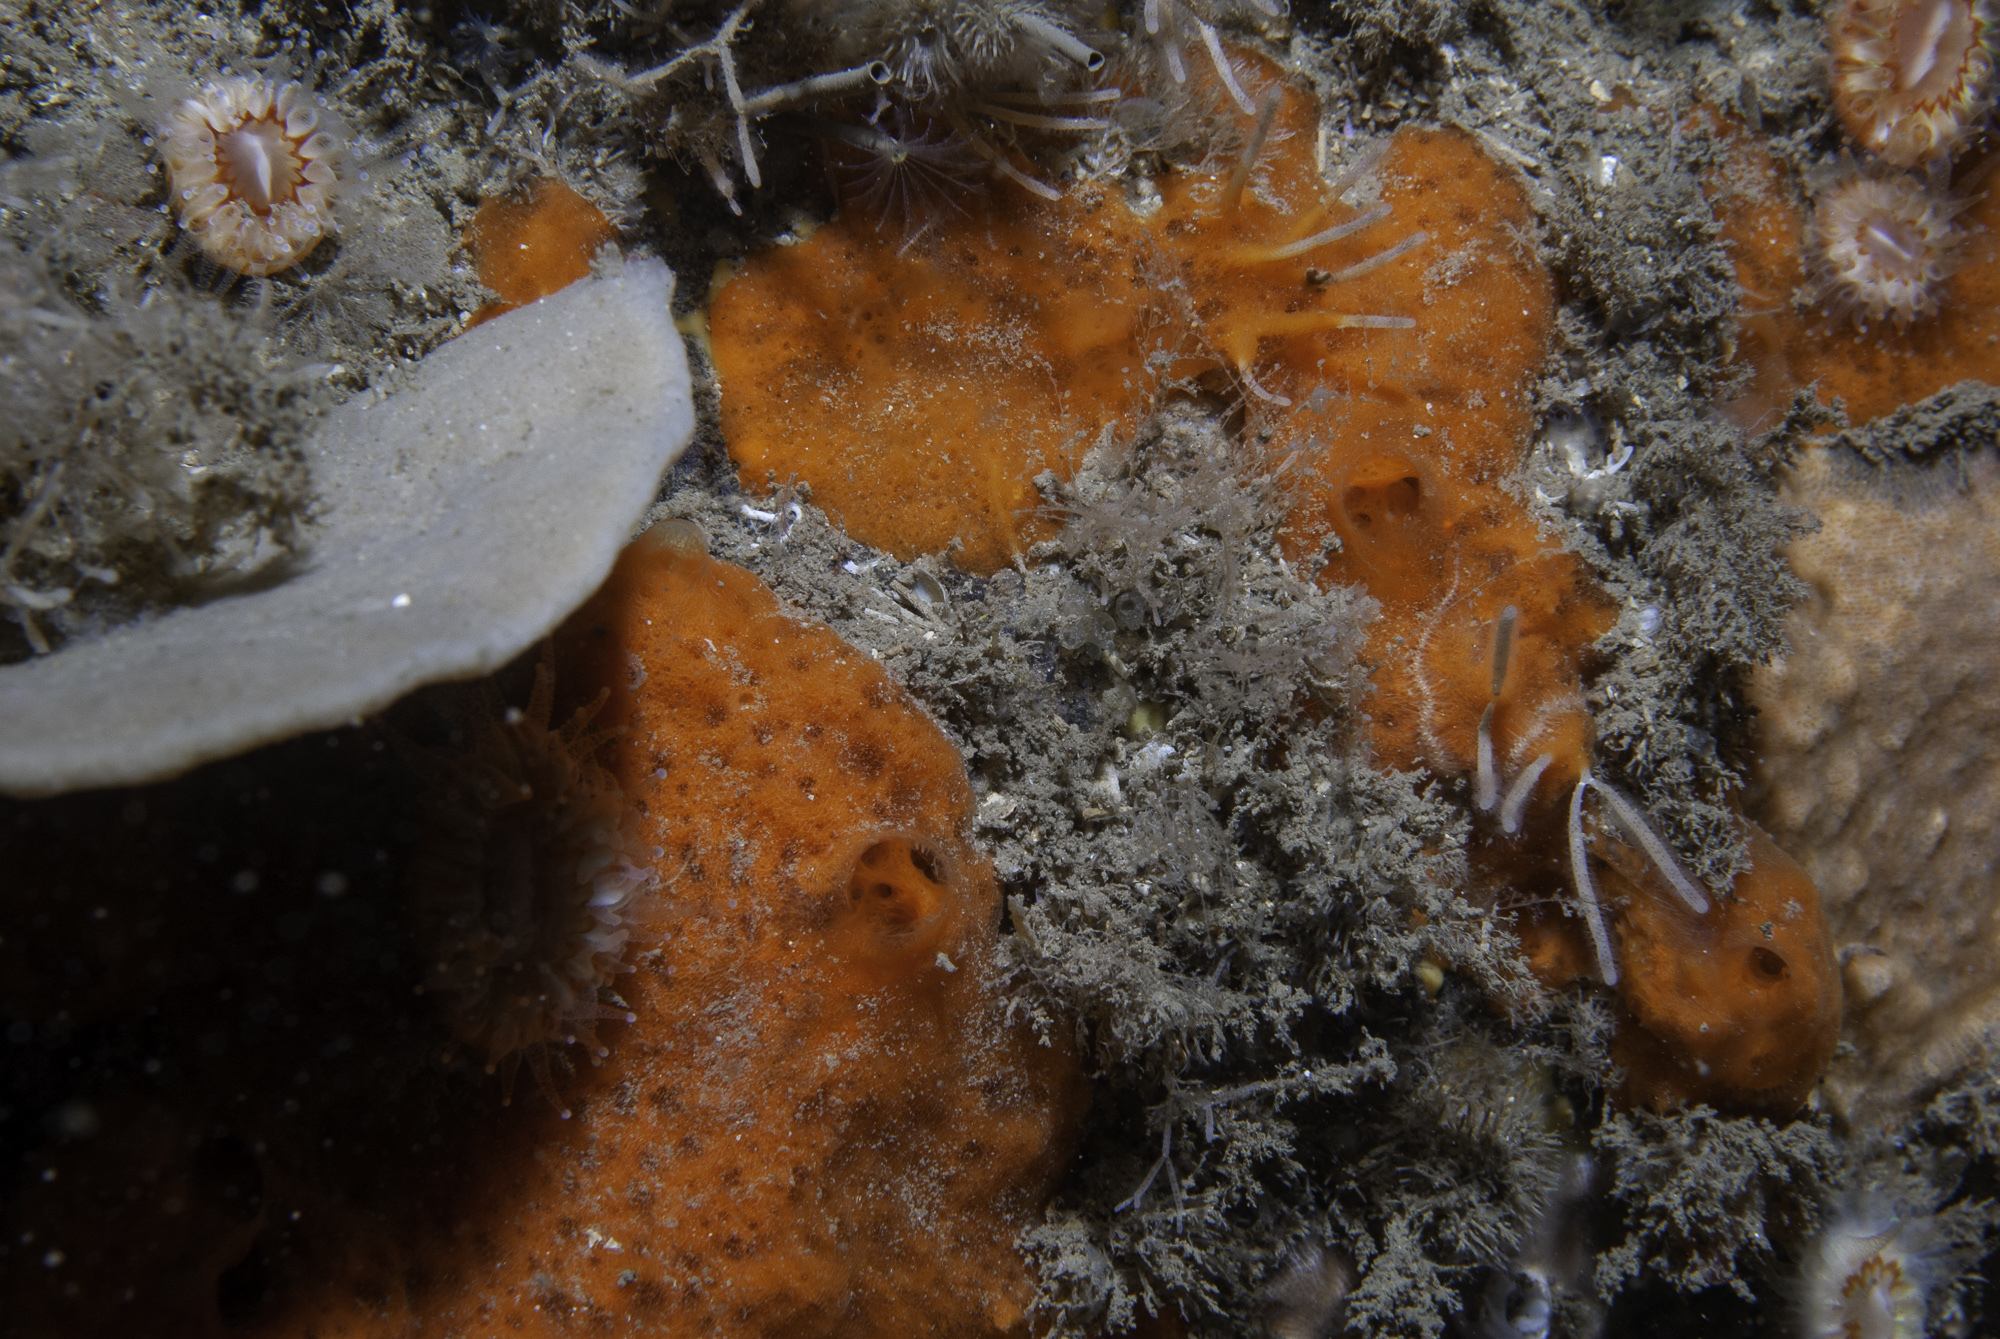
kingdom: Animalia
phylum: Porifera
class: Demospongiae
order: Poecilosclerida
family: Mycalidae
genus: Mycale
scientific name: Mycale rotalis
